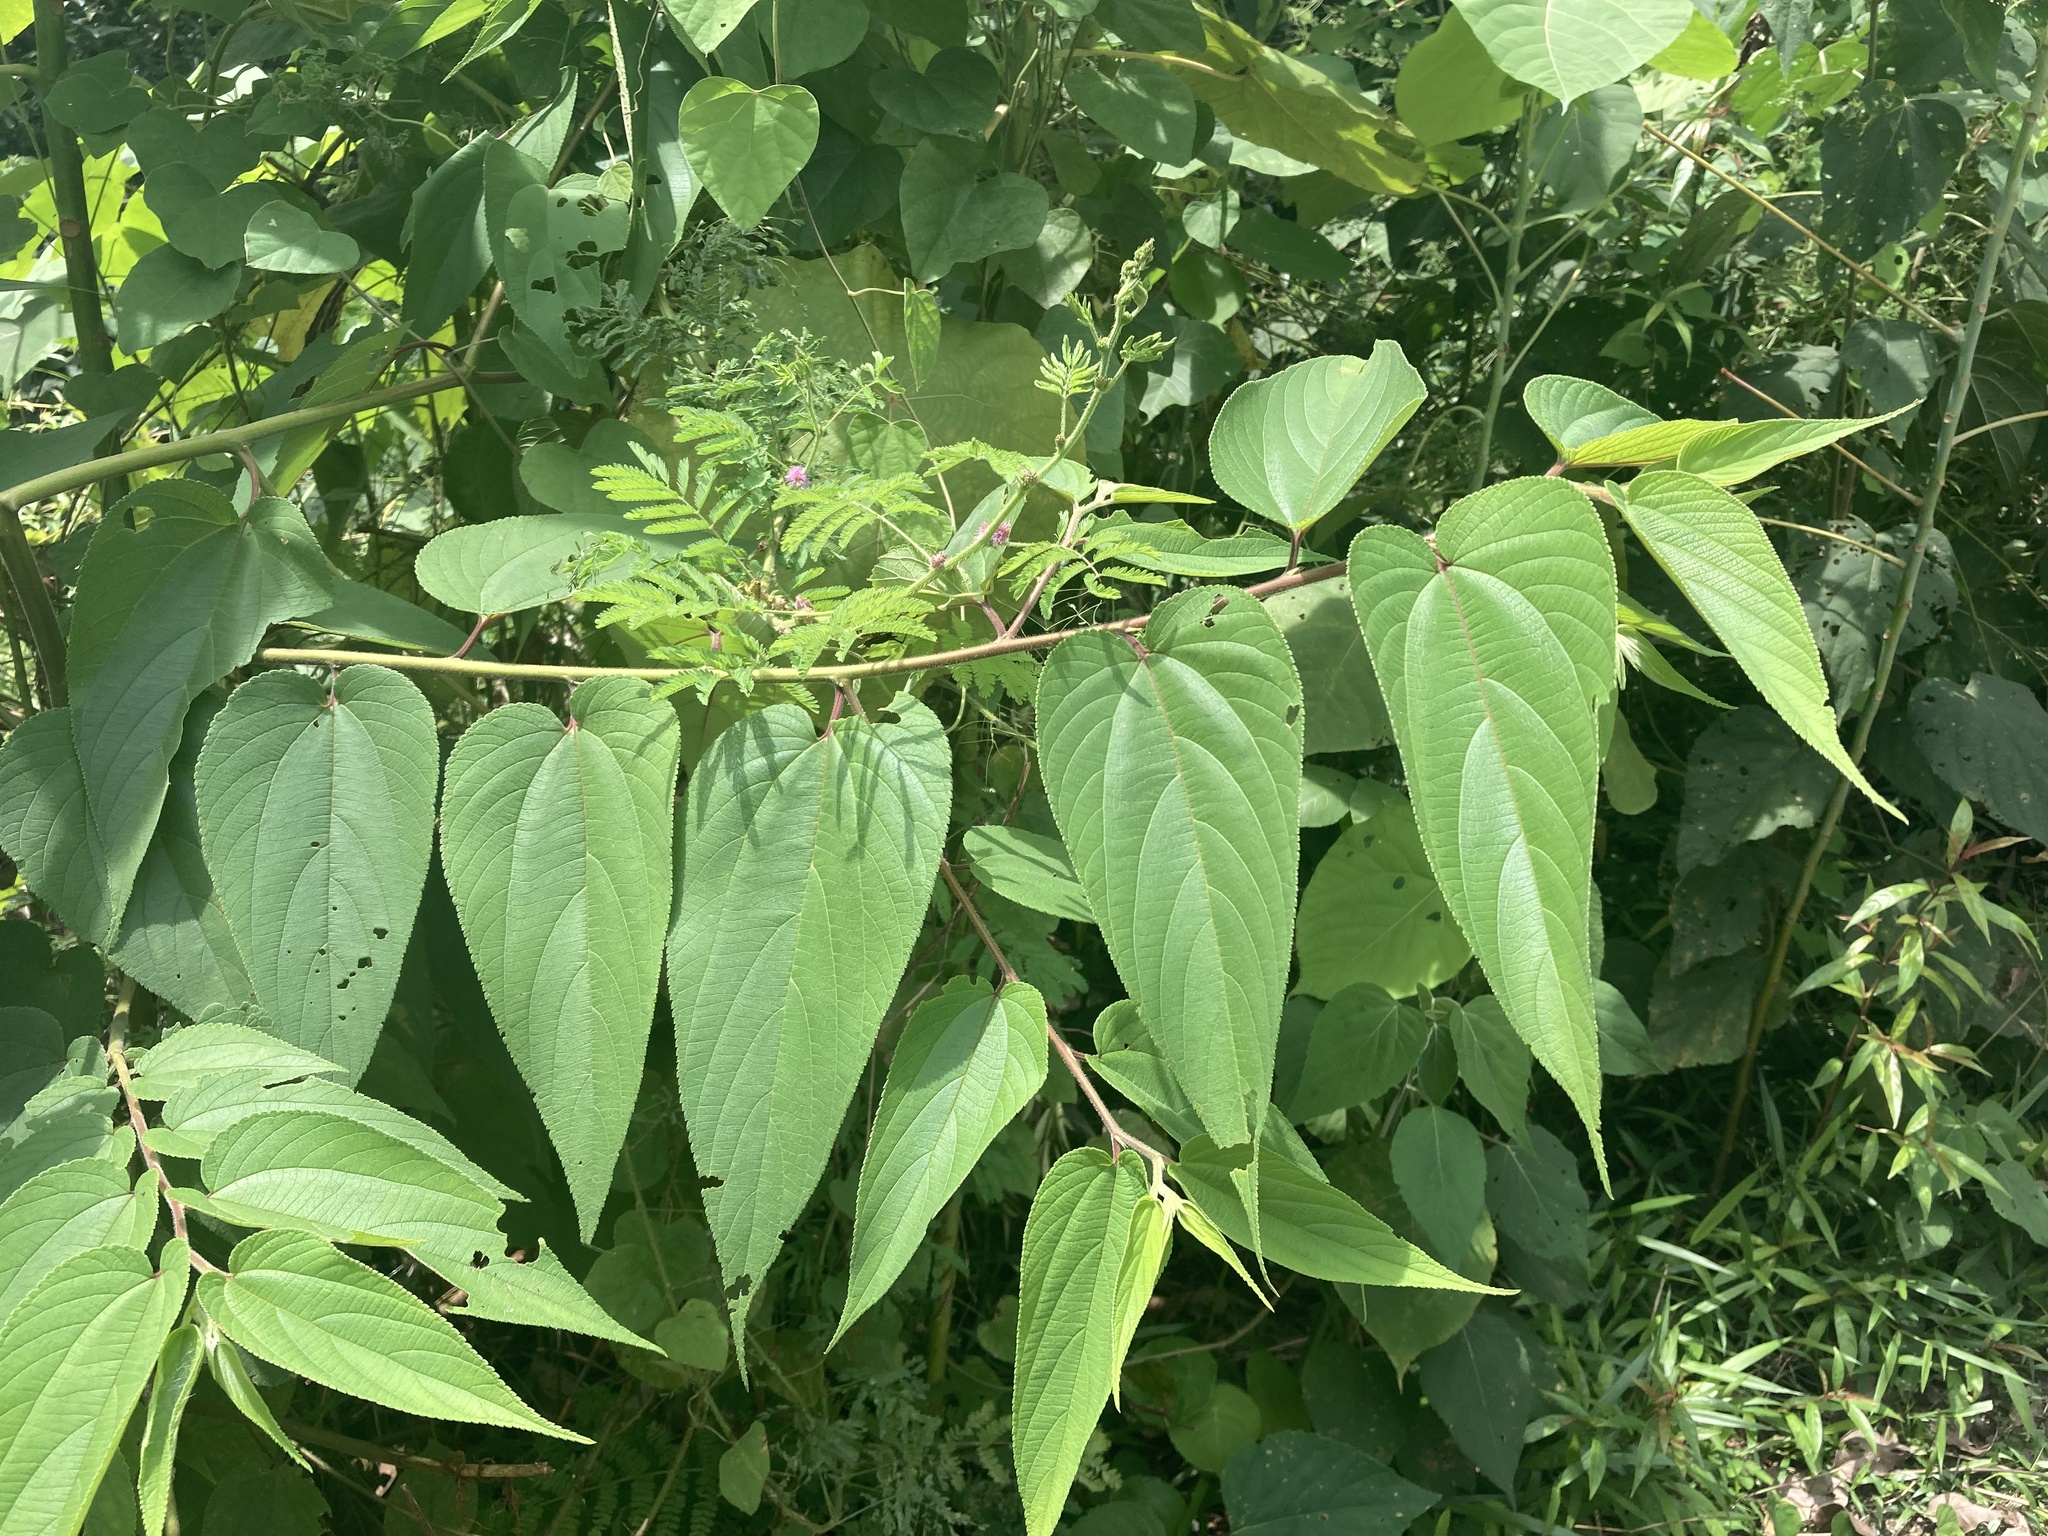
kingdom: Plantae
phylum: Tracheophyta
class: Magnoliopsida
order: Rosales
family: Cannabaceae
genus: Trema
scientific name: Trema orientale
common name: Indian charcoal tree
